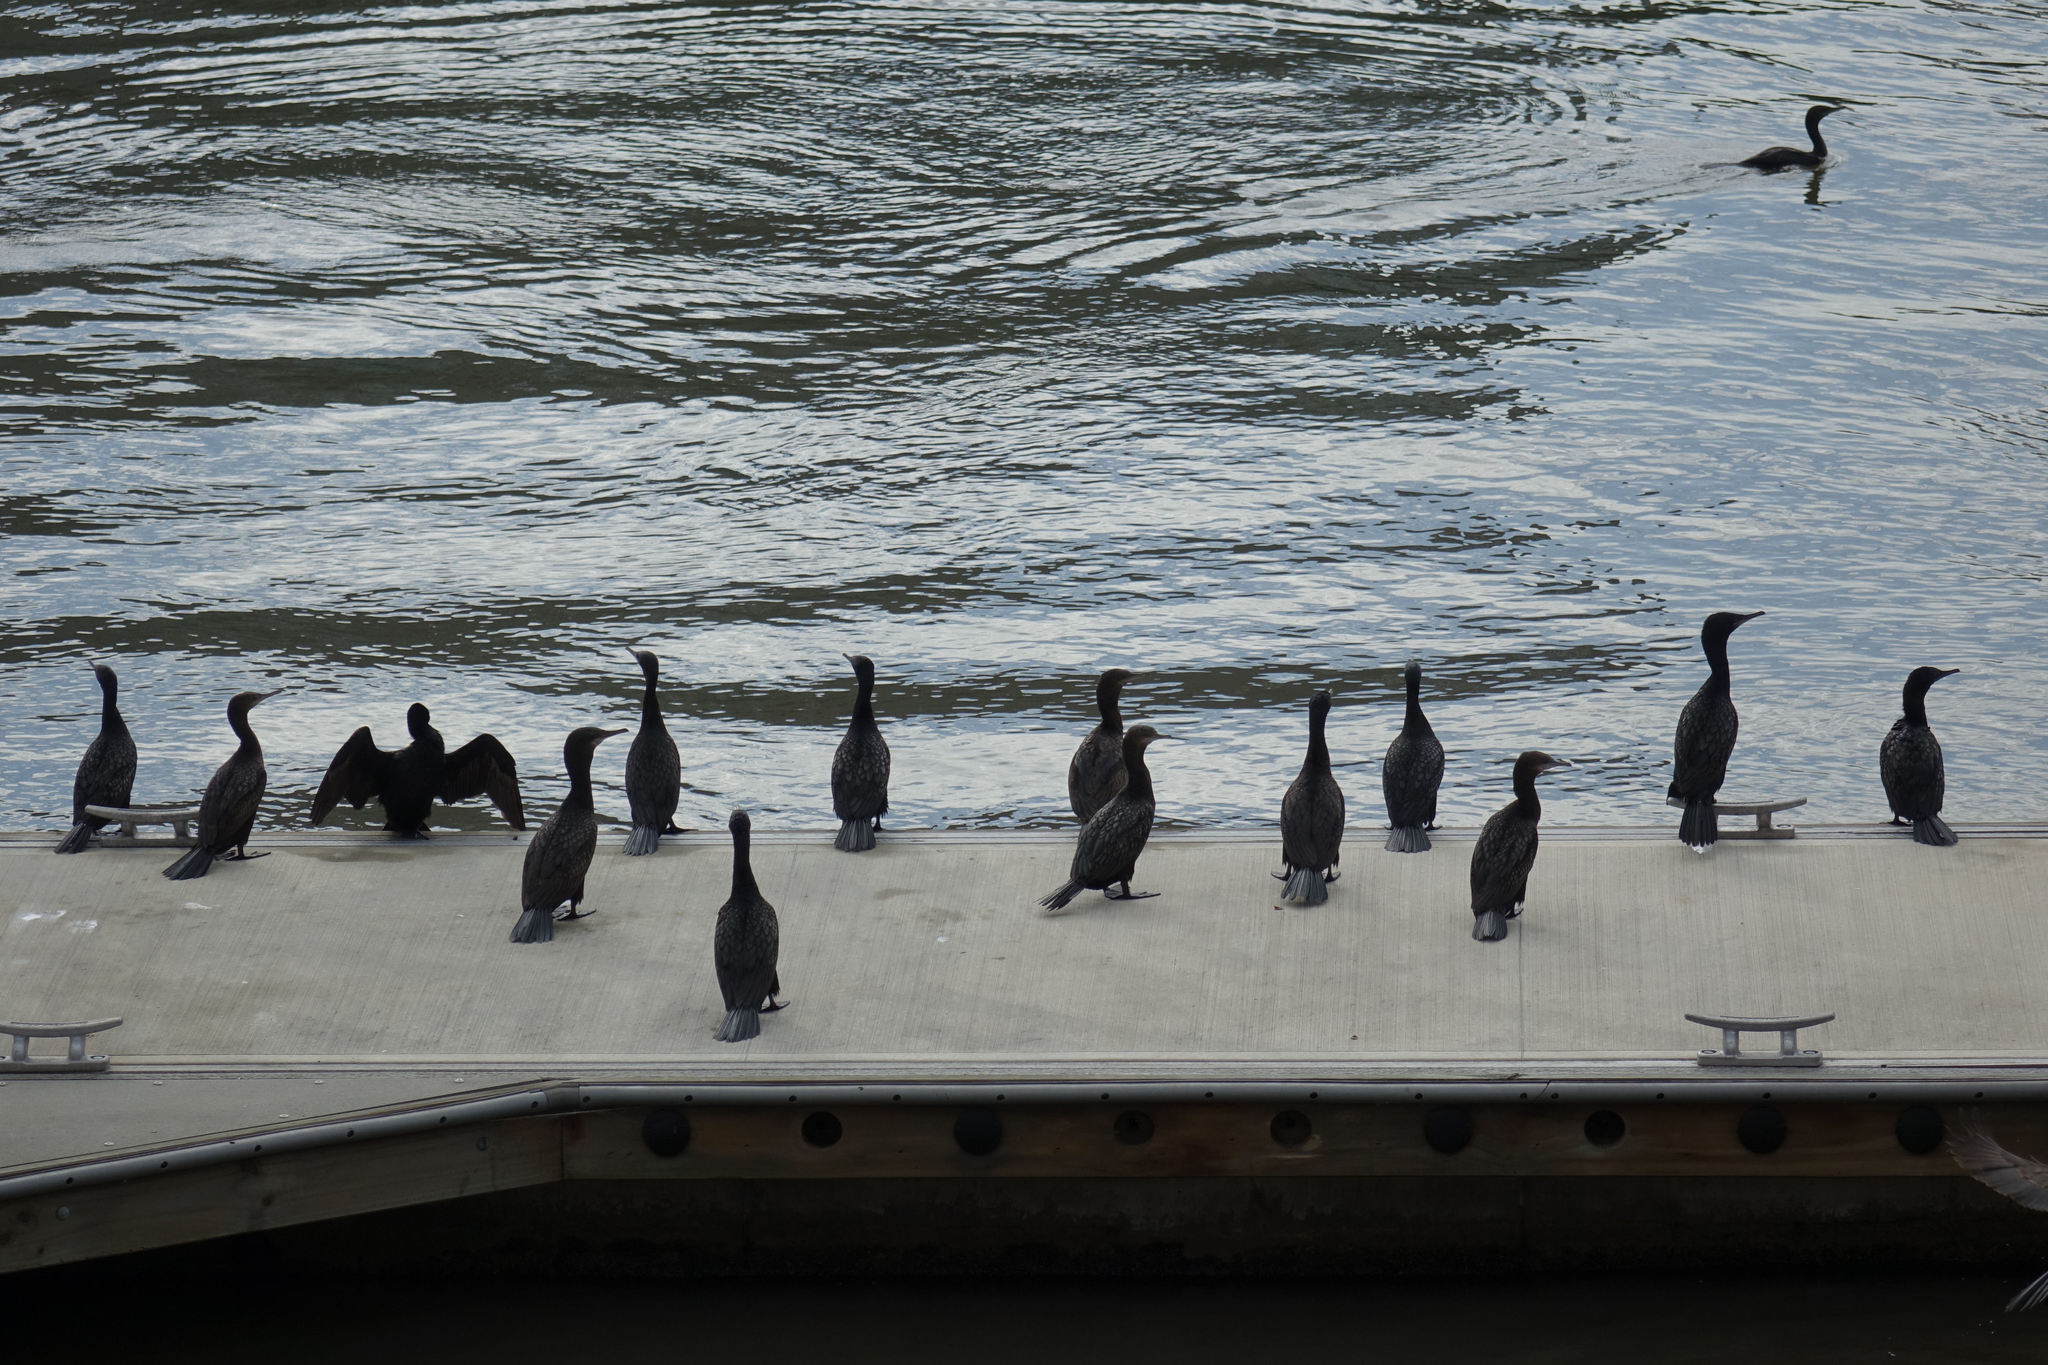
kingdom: Animalia
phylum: Chordata
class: Aves
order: Suliformes
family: Phalacrocoracidae
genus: Phalacrocorax
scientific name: Phalacrocorax sulcirostris
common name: Little black cormorant
